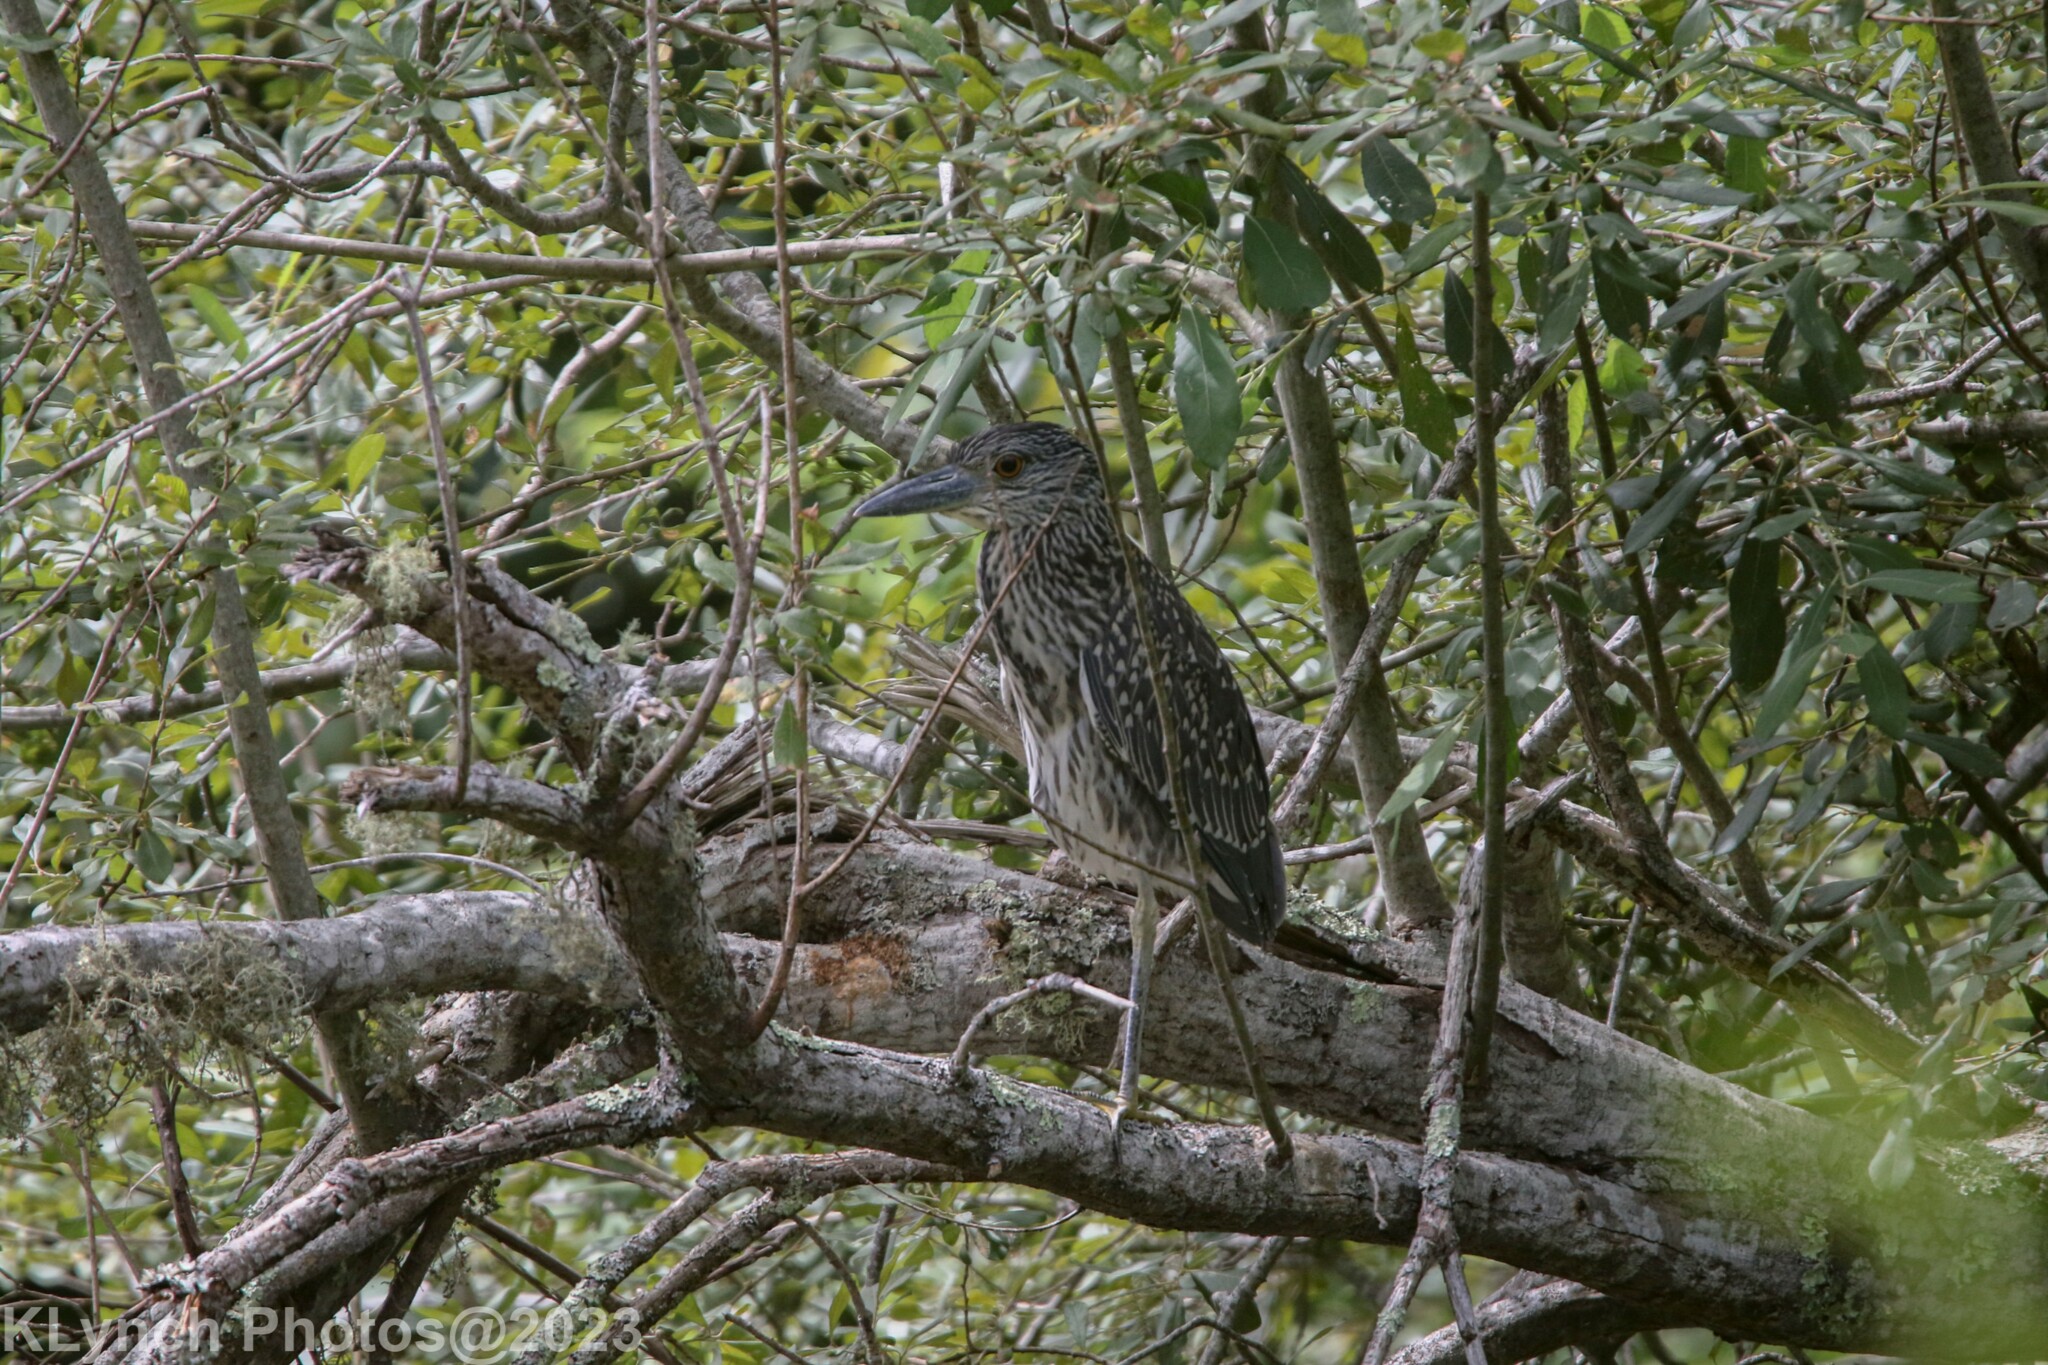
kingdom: Animalia
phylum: Chordata
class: Aves
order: Pelecaniformes
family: Ardeidae
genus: Nyctanassa
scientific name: Nyctanassa violacea
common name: Yellow-crowned night heron
